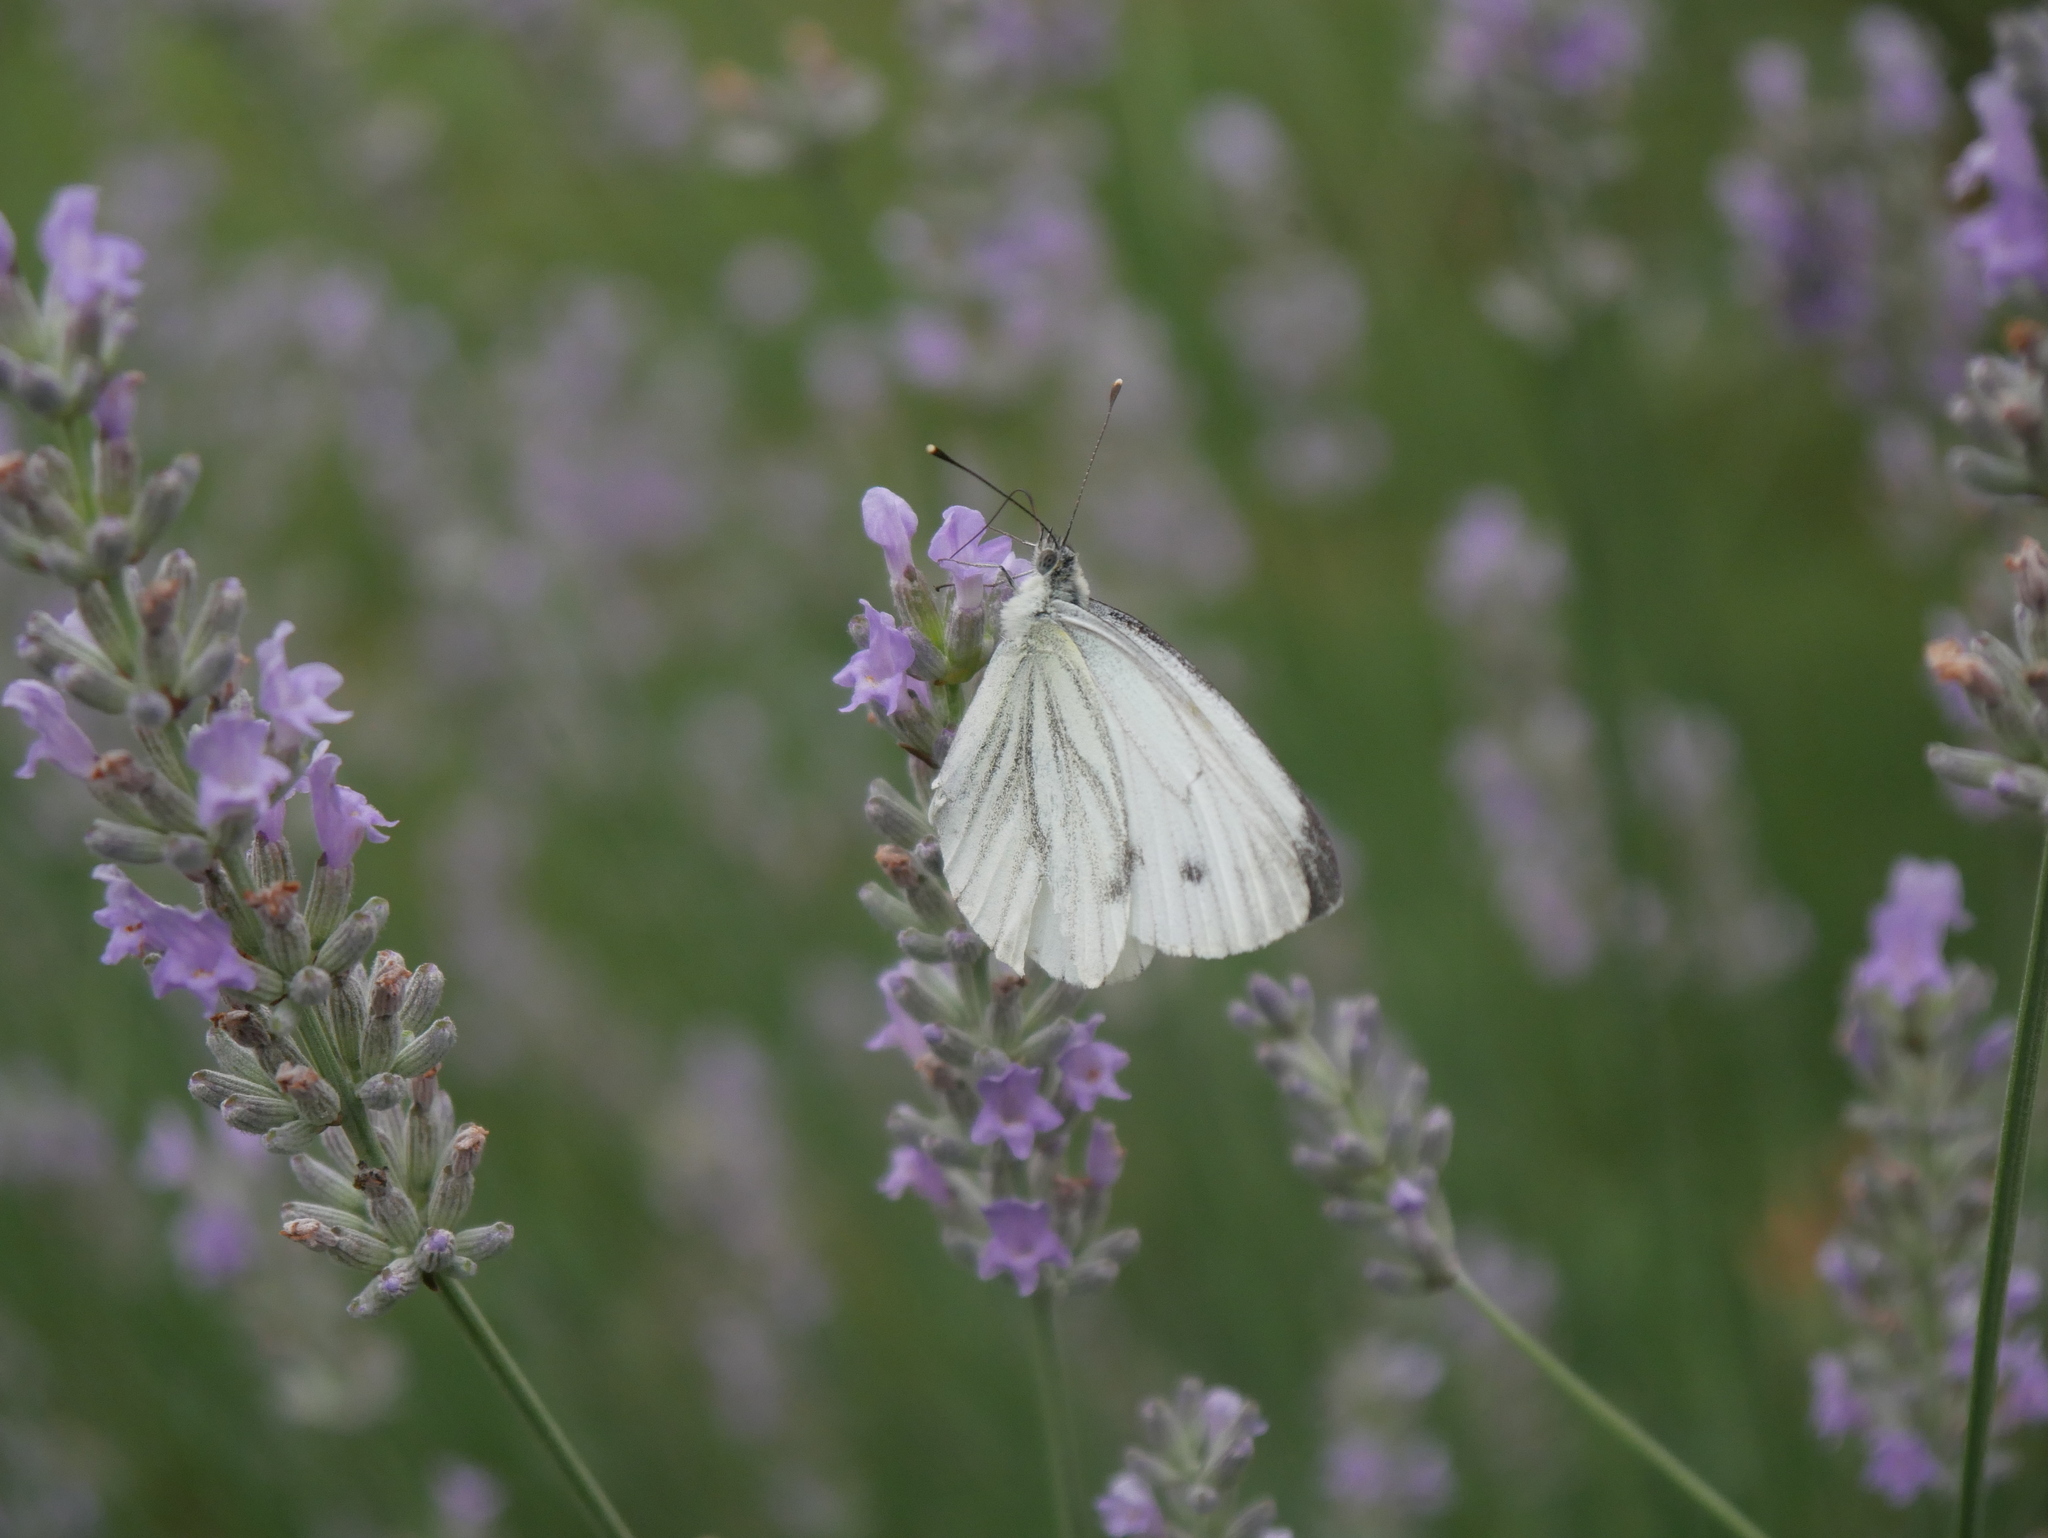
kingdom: Animalia
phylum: Arthropoda
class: Insecta
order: Lepidoptera
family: Pieridae
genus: Pieris
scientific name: Pieris napi
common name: Green-veined white
